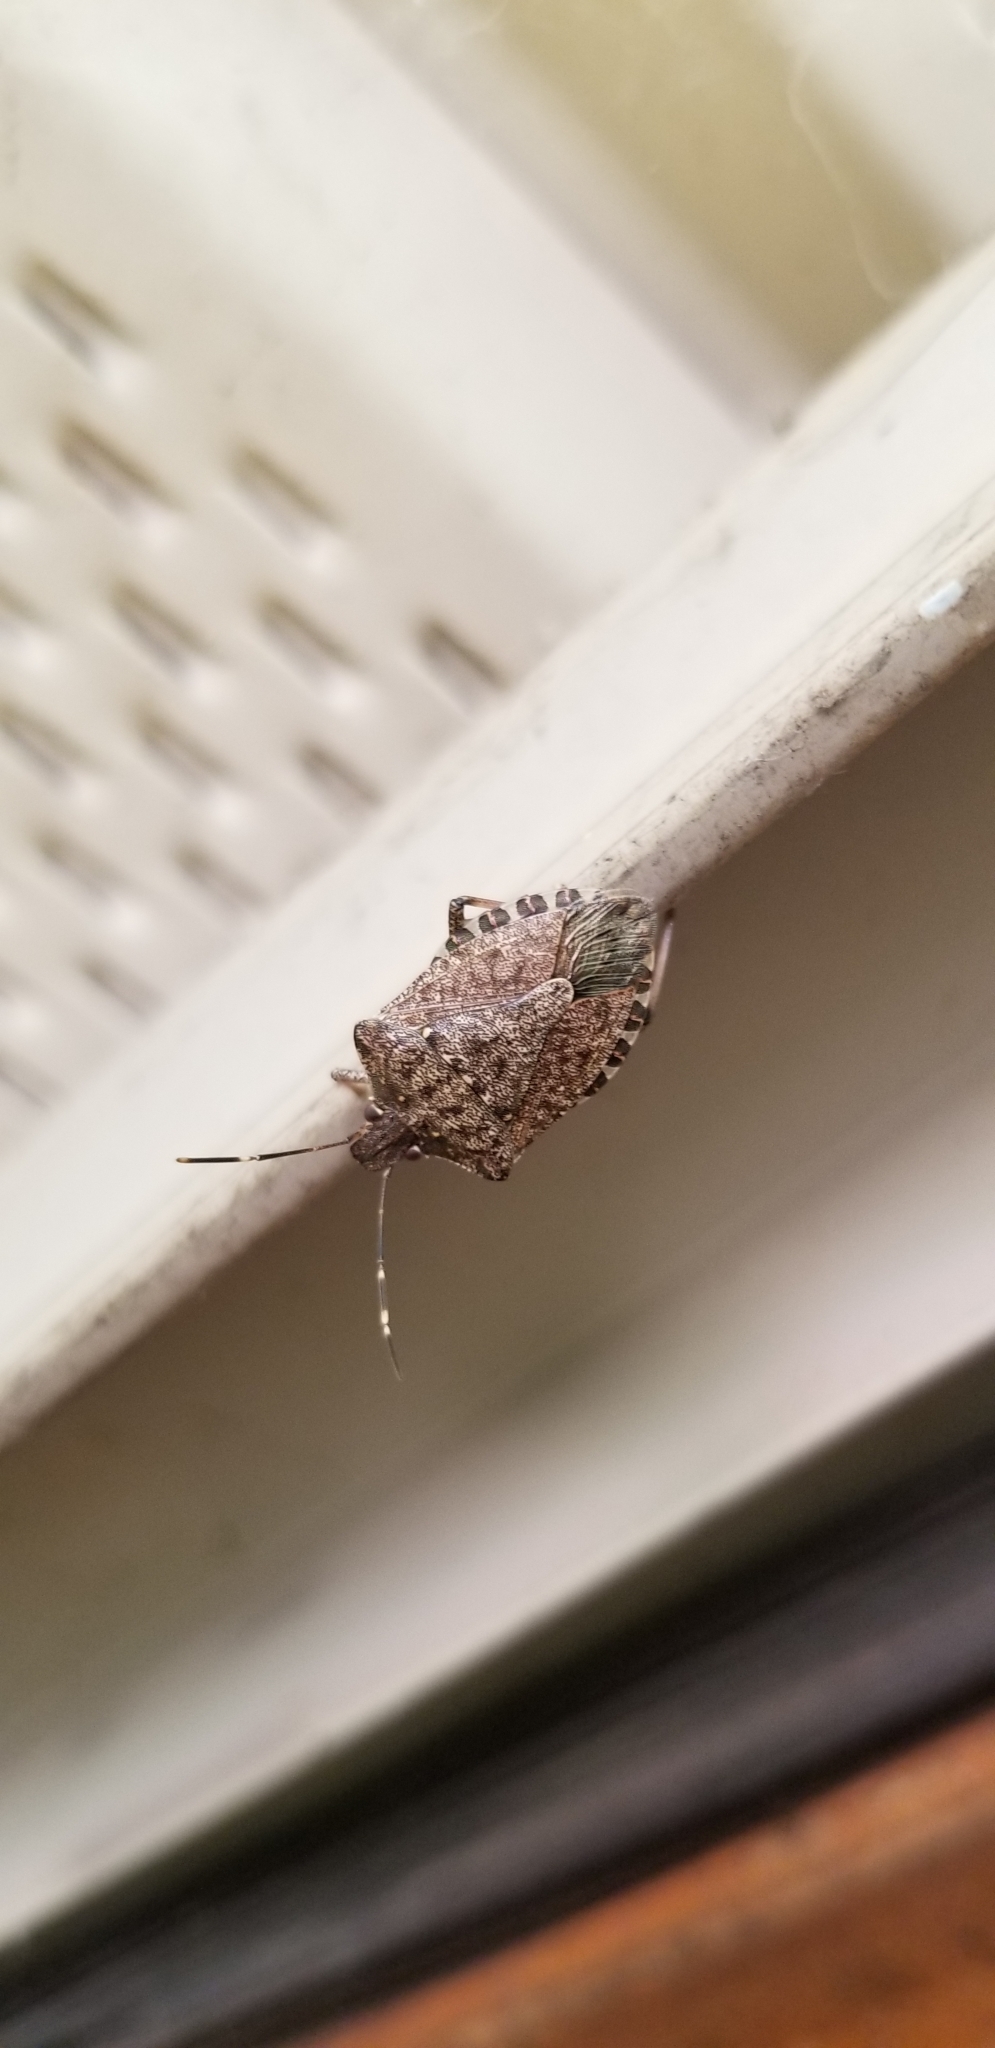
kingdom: Animalia
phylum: Arthropoda
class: Insecta
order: Hemiptera
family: Pentatomidae
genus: Halyomorpha
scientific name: Halyomorpha halys
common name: Brown marmorated stink bug
